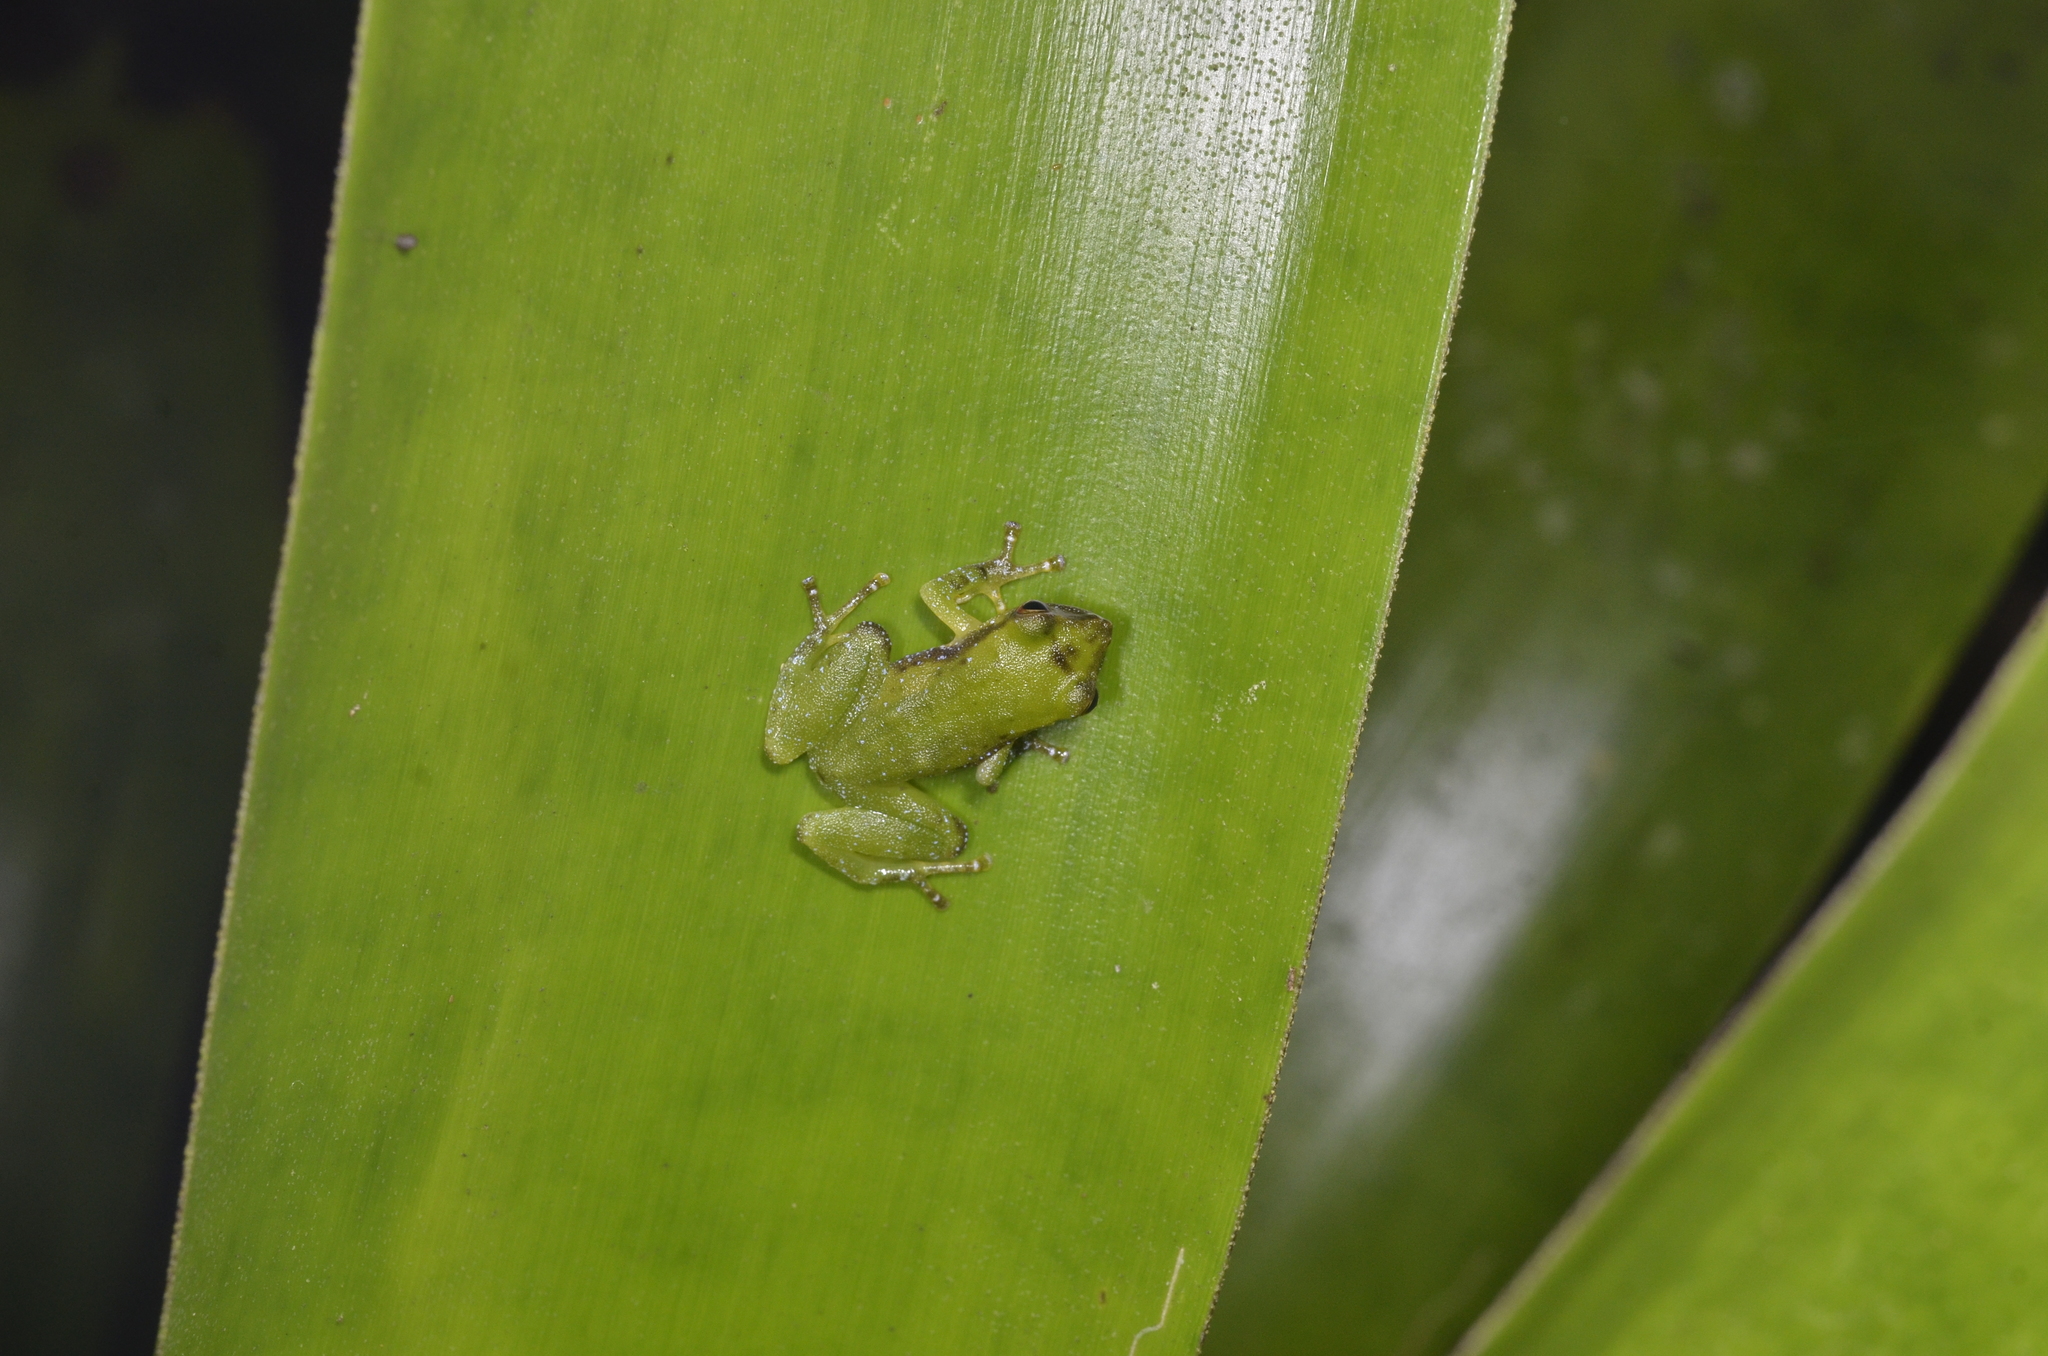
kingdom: Animalia
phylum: Chordata
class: Amphibia
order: Anura
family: Craugastoridae
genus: Pristimantis
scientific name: Pristimantis omeviridis
